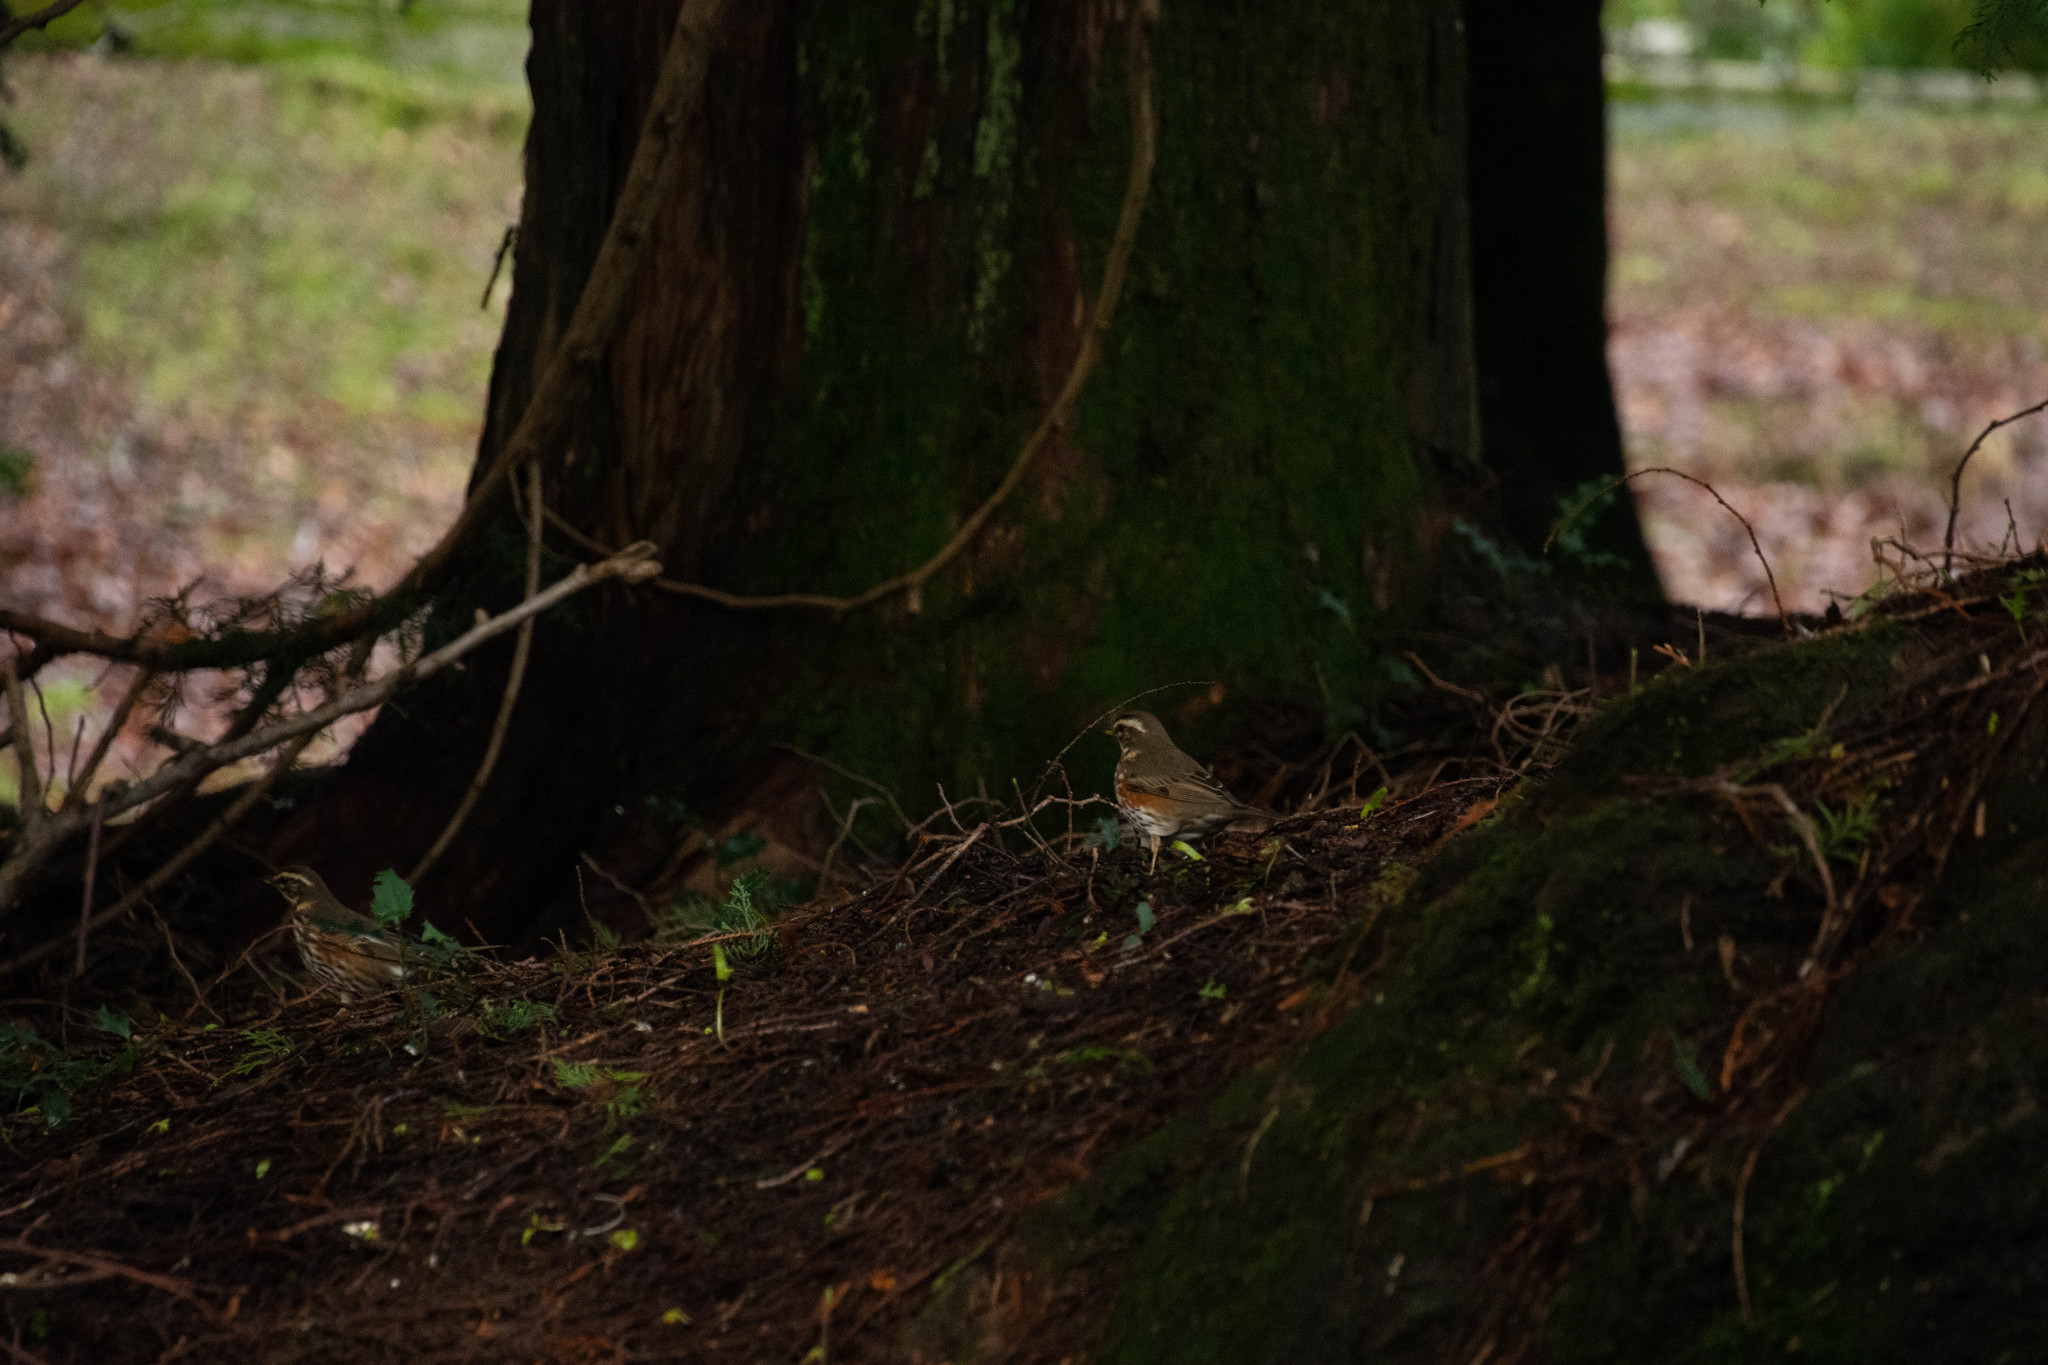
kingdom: Animalia
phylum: Chordata
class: Aves
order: Passeriformes
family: Turdidae
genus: Turdus
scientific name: Turdus iliacus
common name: Redwing
